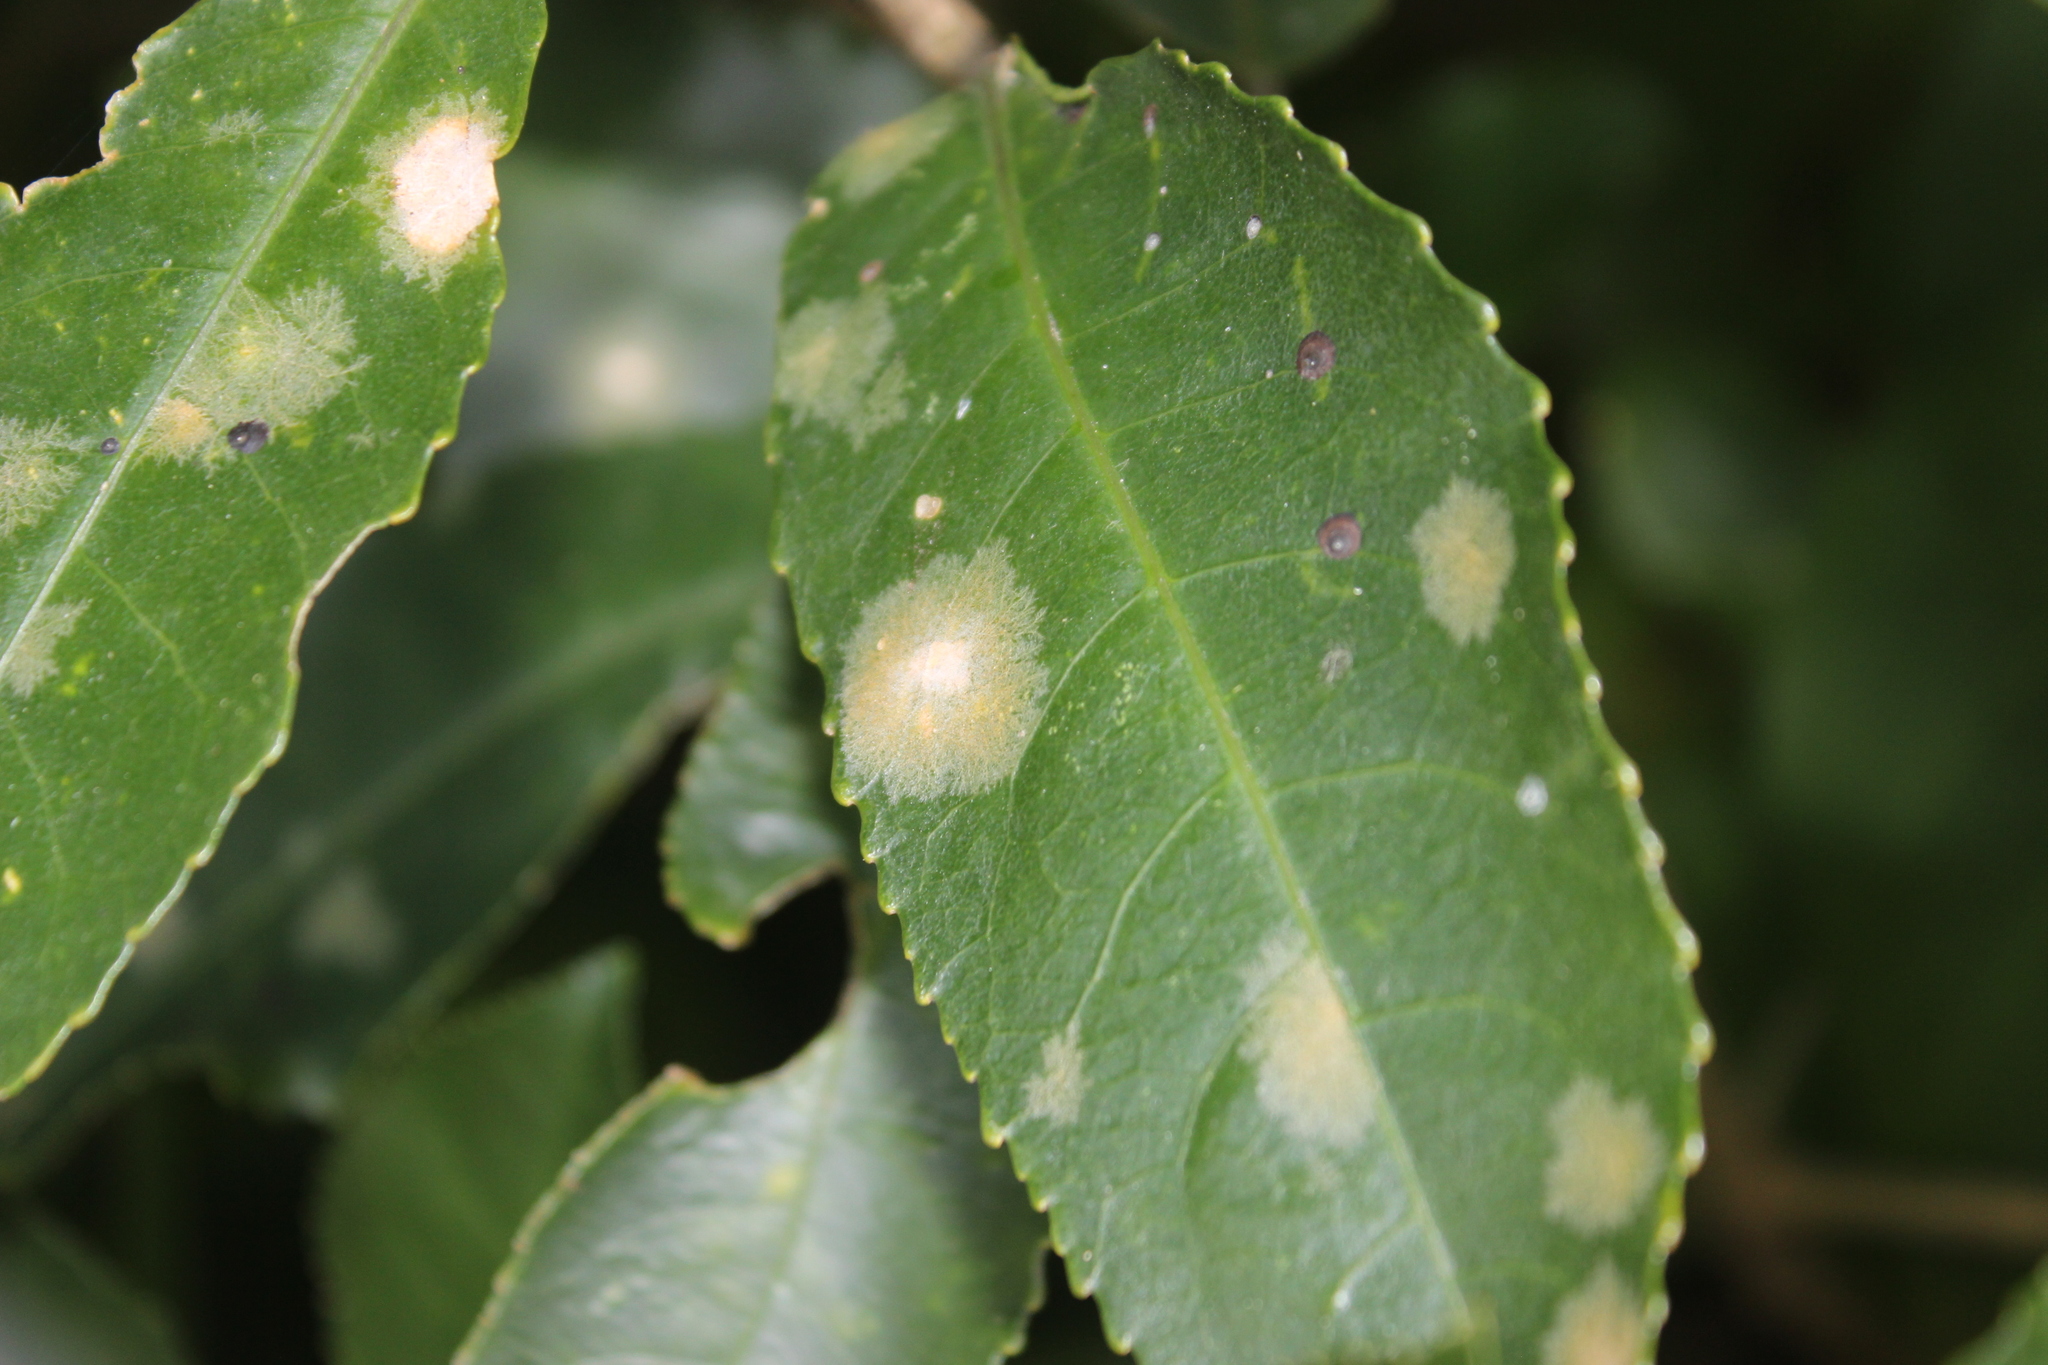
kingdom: Plantae
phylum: Chlorophyta
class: Ulvophyceae
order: Trentepohliales
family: Trentepohliaceae
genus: Cephaleuros
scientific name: Cephaleuros
